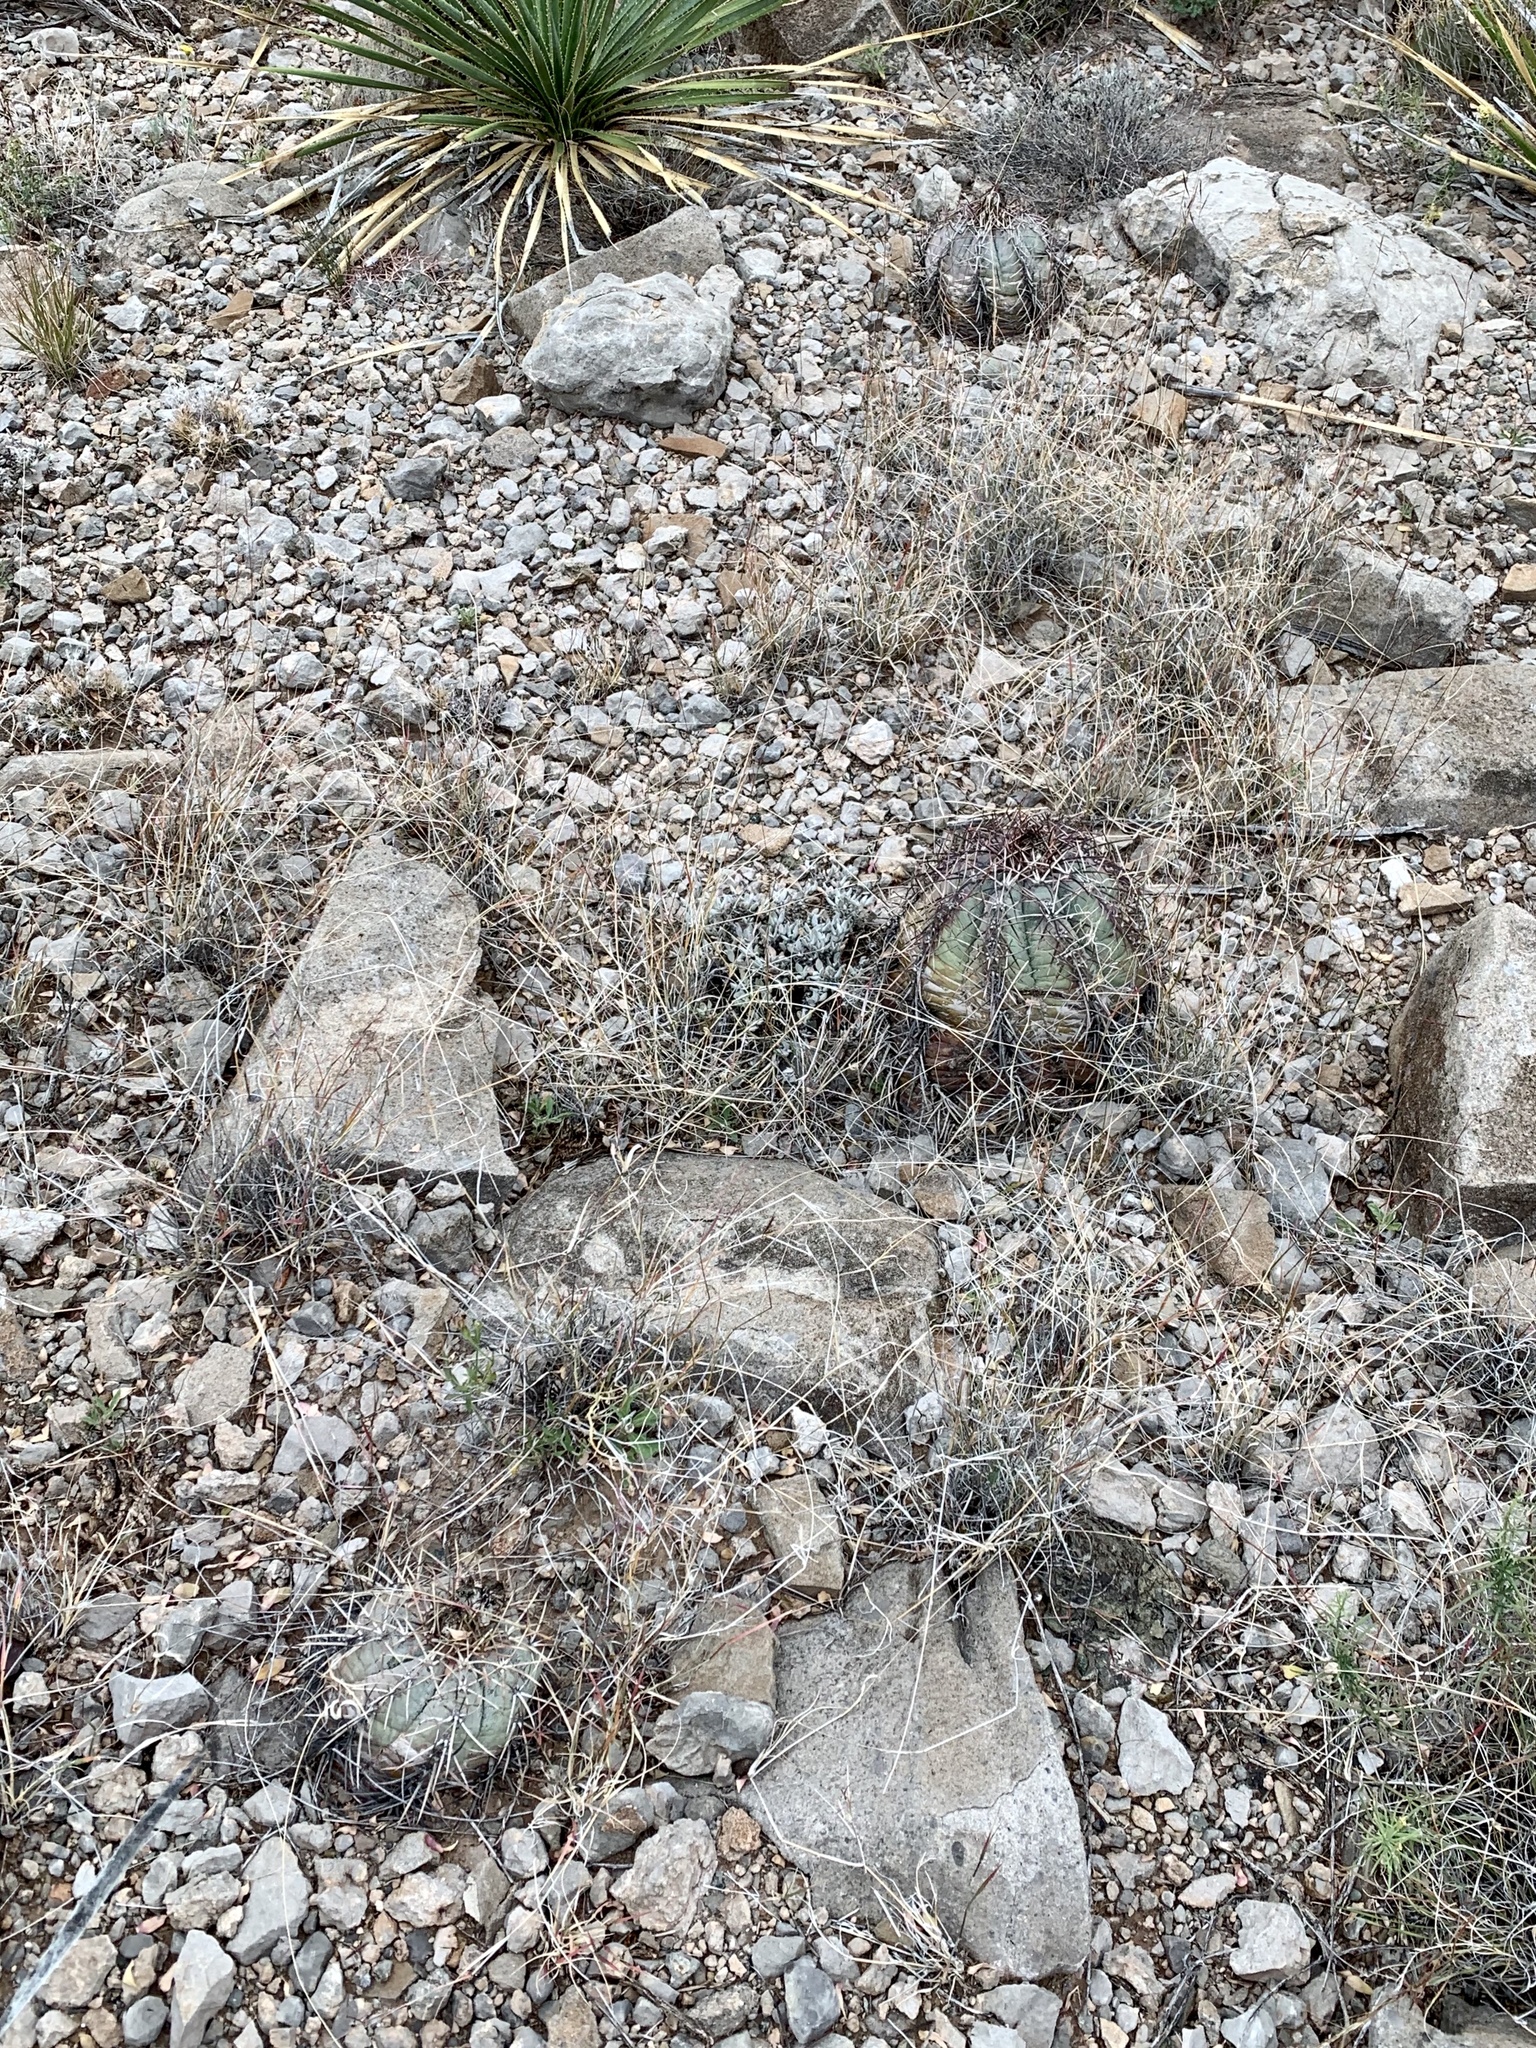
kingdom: Plantae
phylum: Tracheophyta
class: Magnoliopsida
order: Caryophyllales
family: Cactaceae
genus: Echinocactus
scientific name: Echinocactus horizonthalonius
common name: Devilshead
